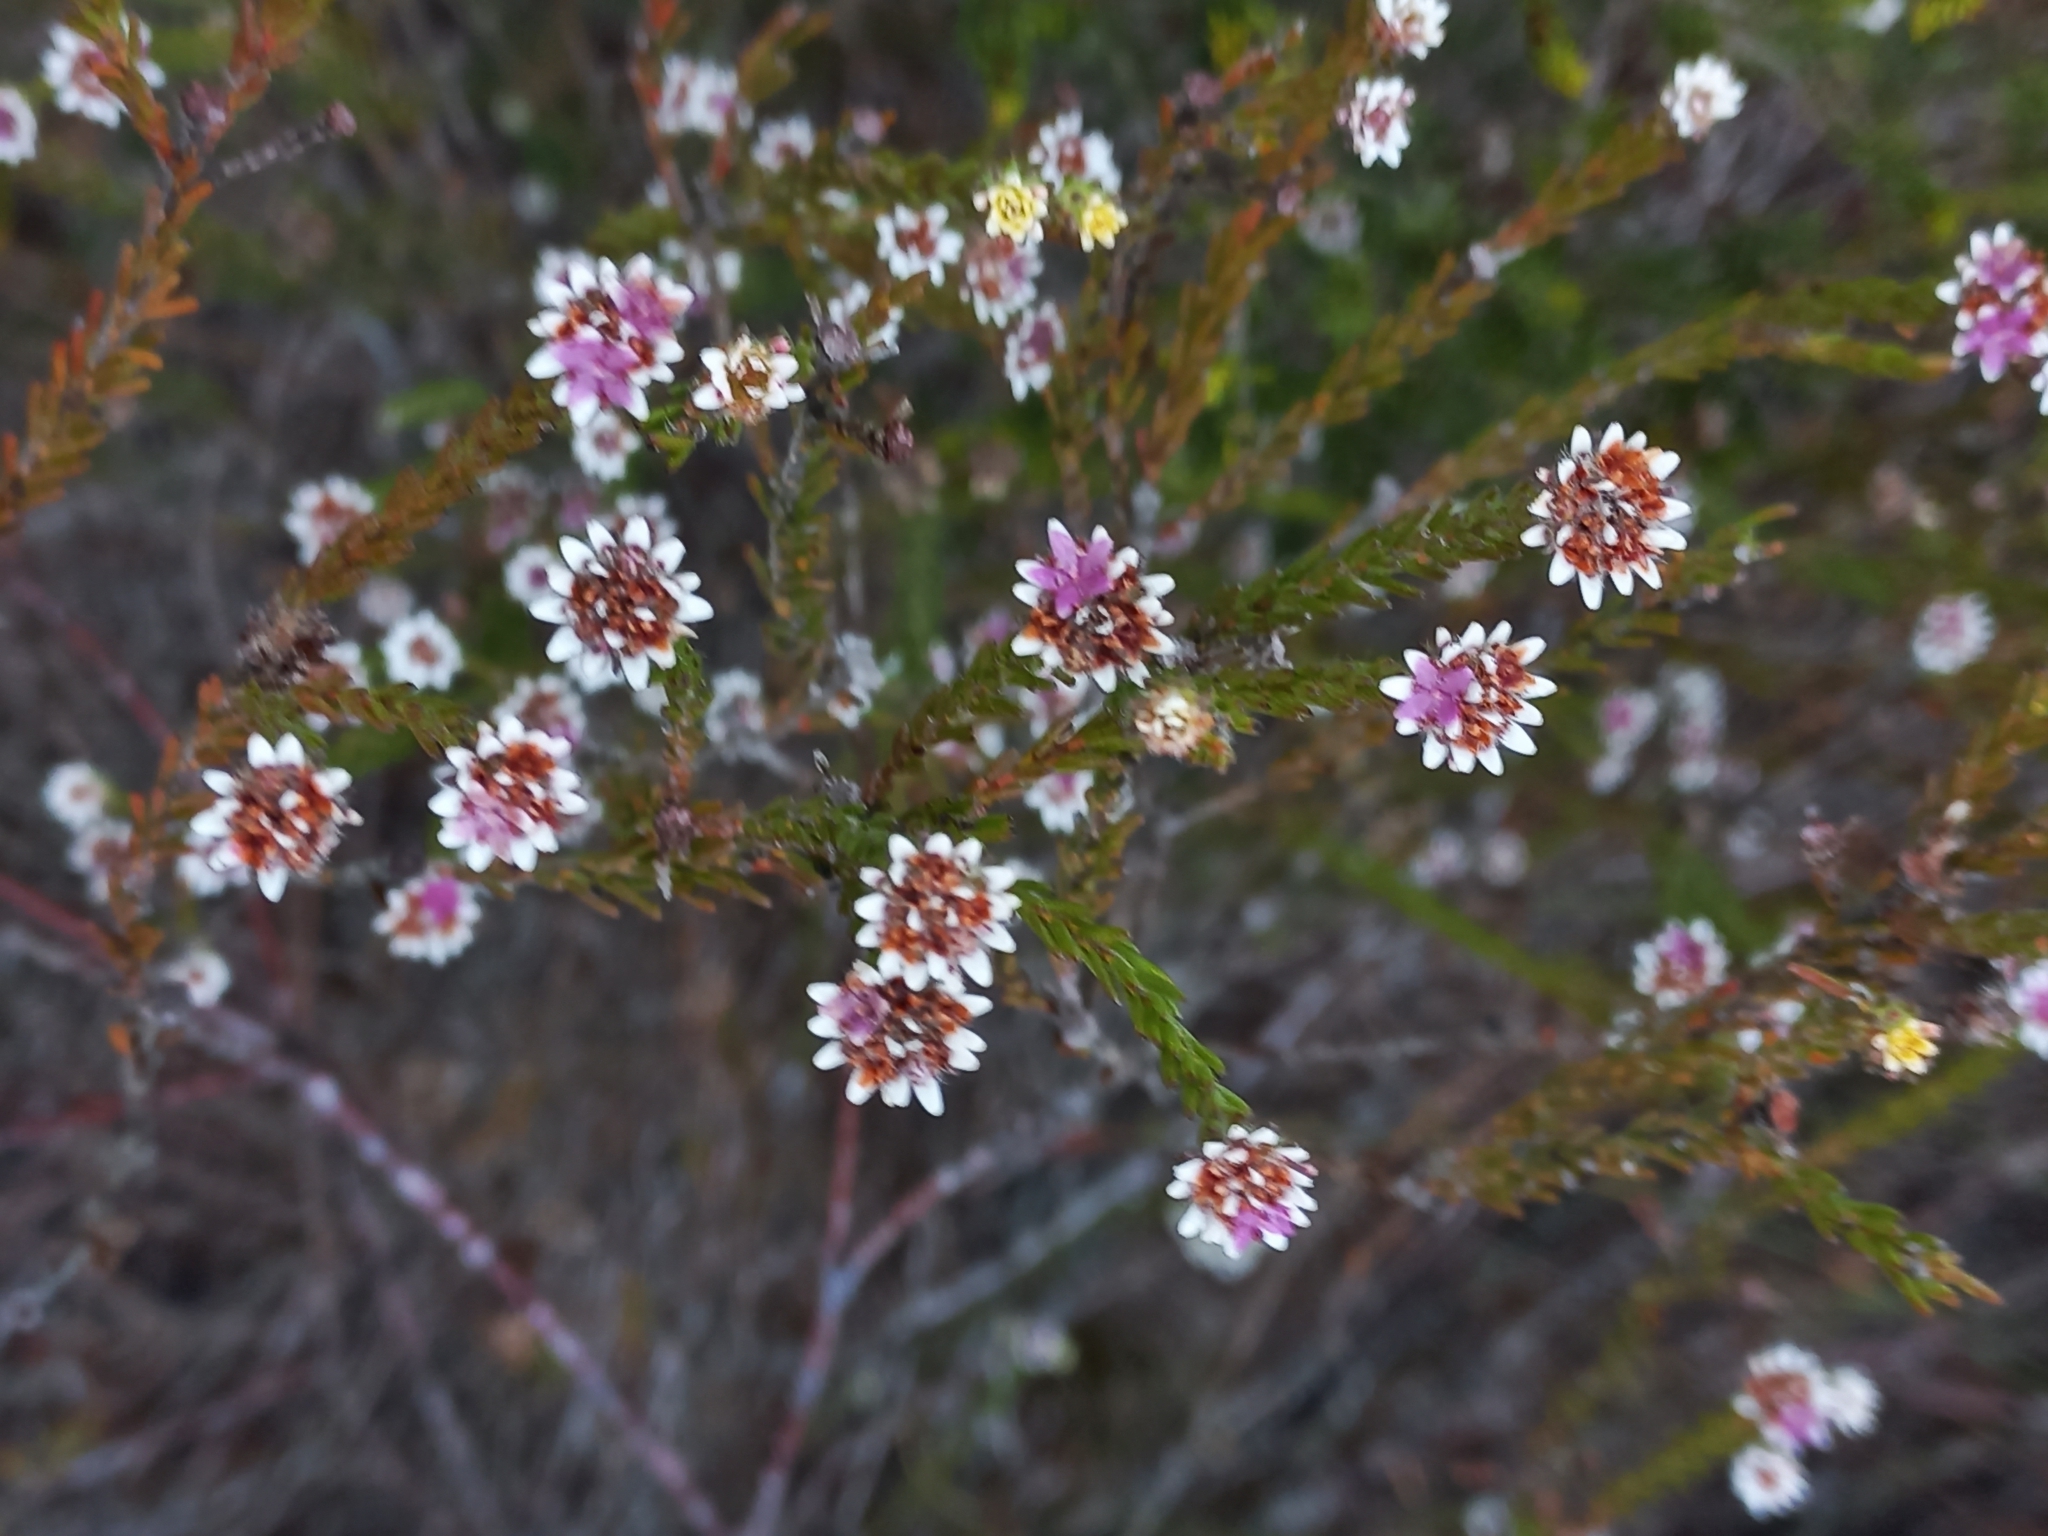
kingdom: Plantae
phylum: Tracheophyta
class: Magnoliopsida
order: Bruniales
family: Bruniaceae
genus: Staavia
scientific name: Staavia radiata
